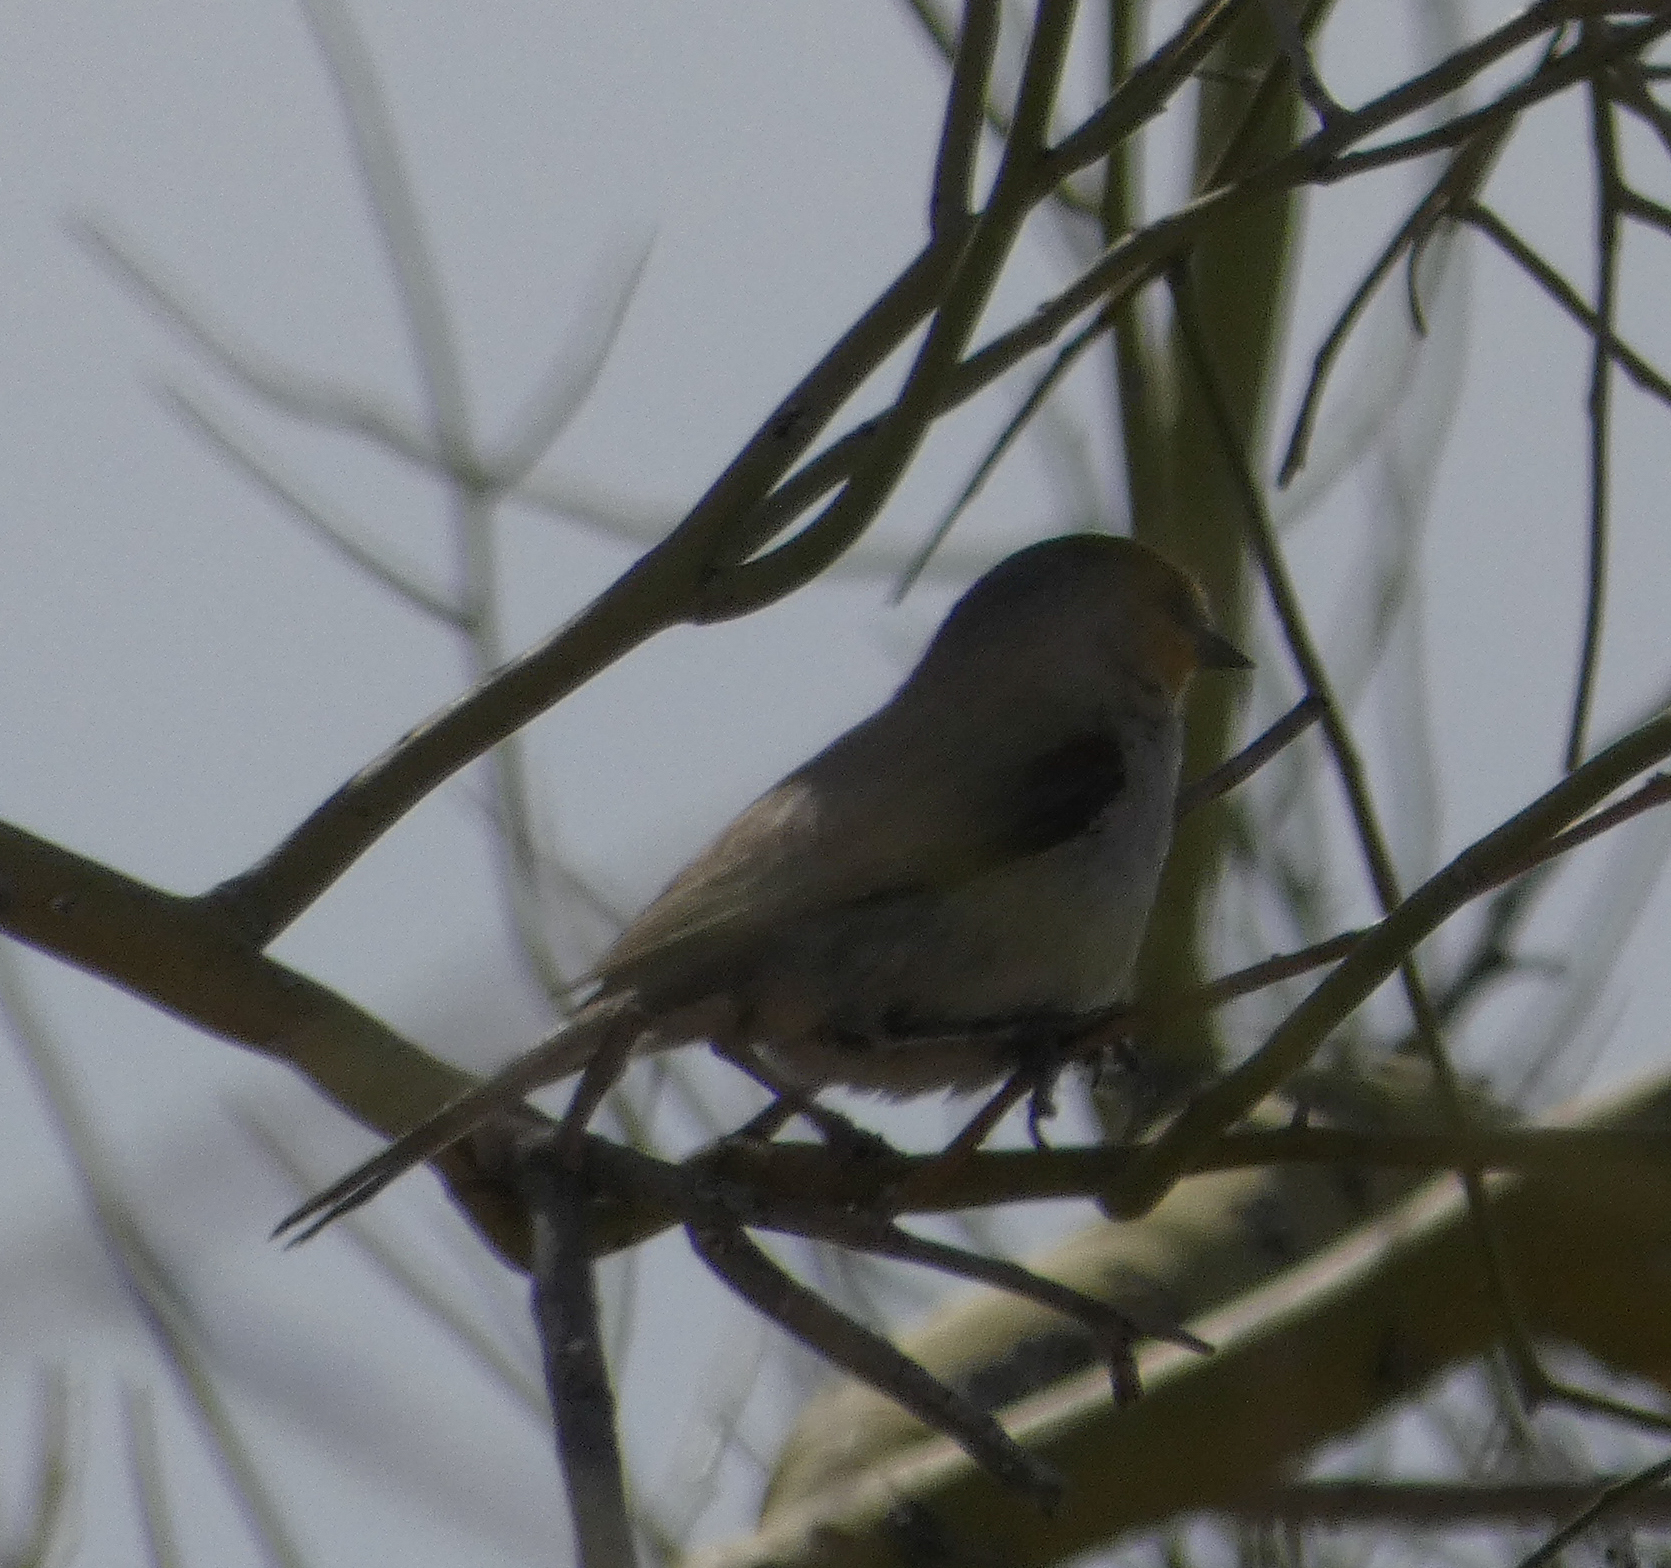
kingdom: Animalia
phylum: Chordata
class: Aves
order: Passeriformes
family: Remizidae
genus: Auriparus
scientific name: Auriparus flaviceps
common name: Verdin
